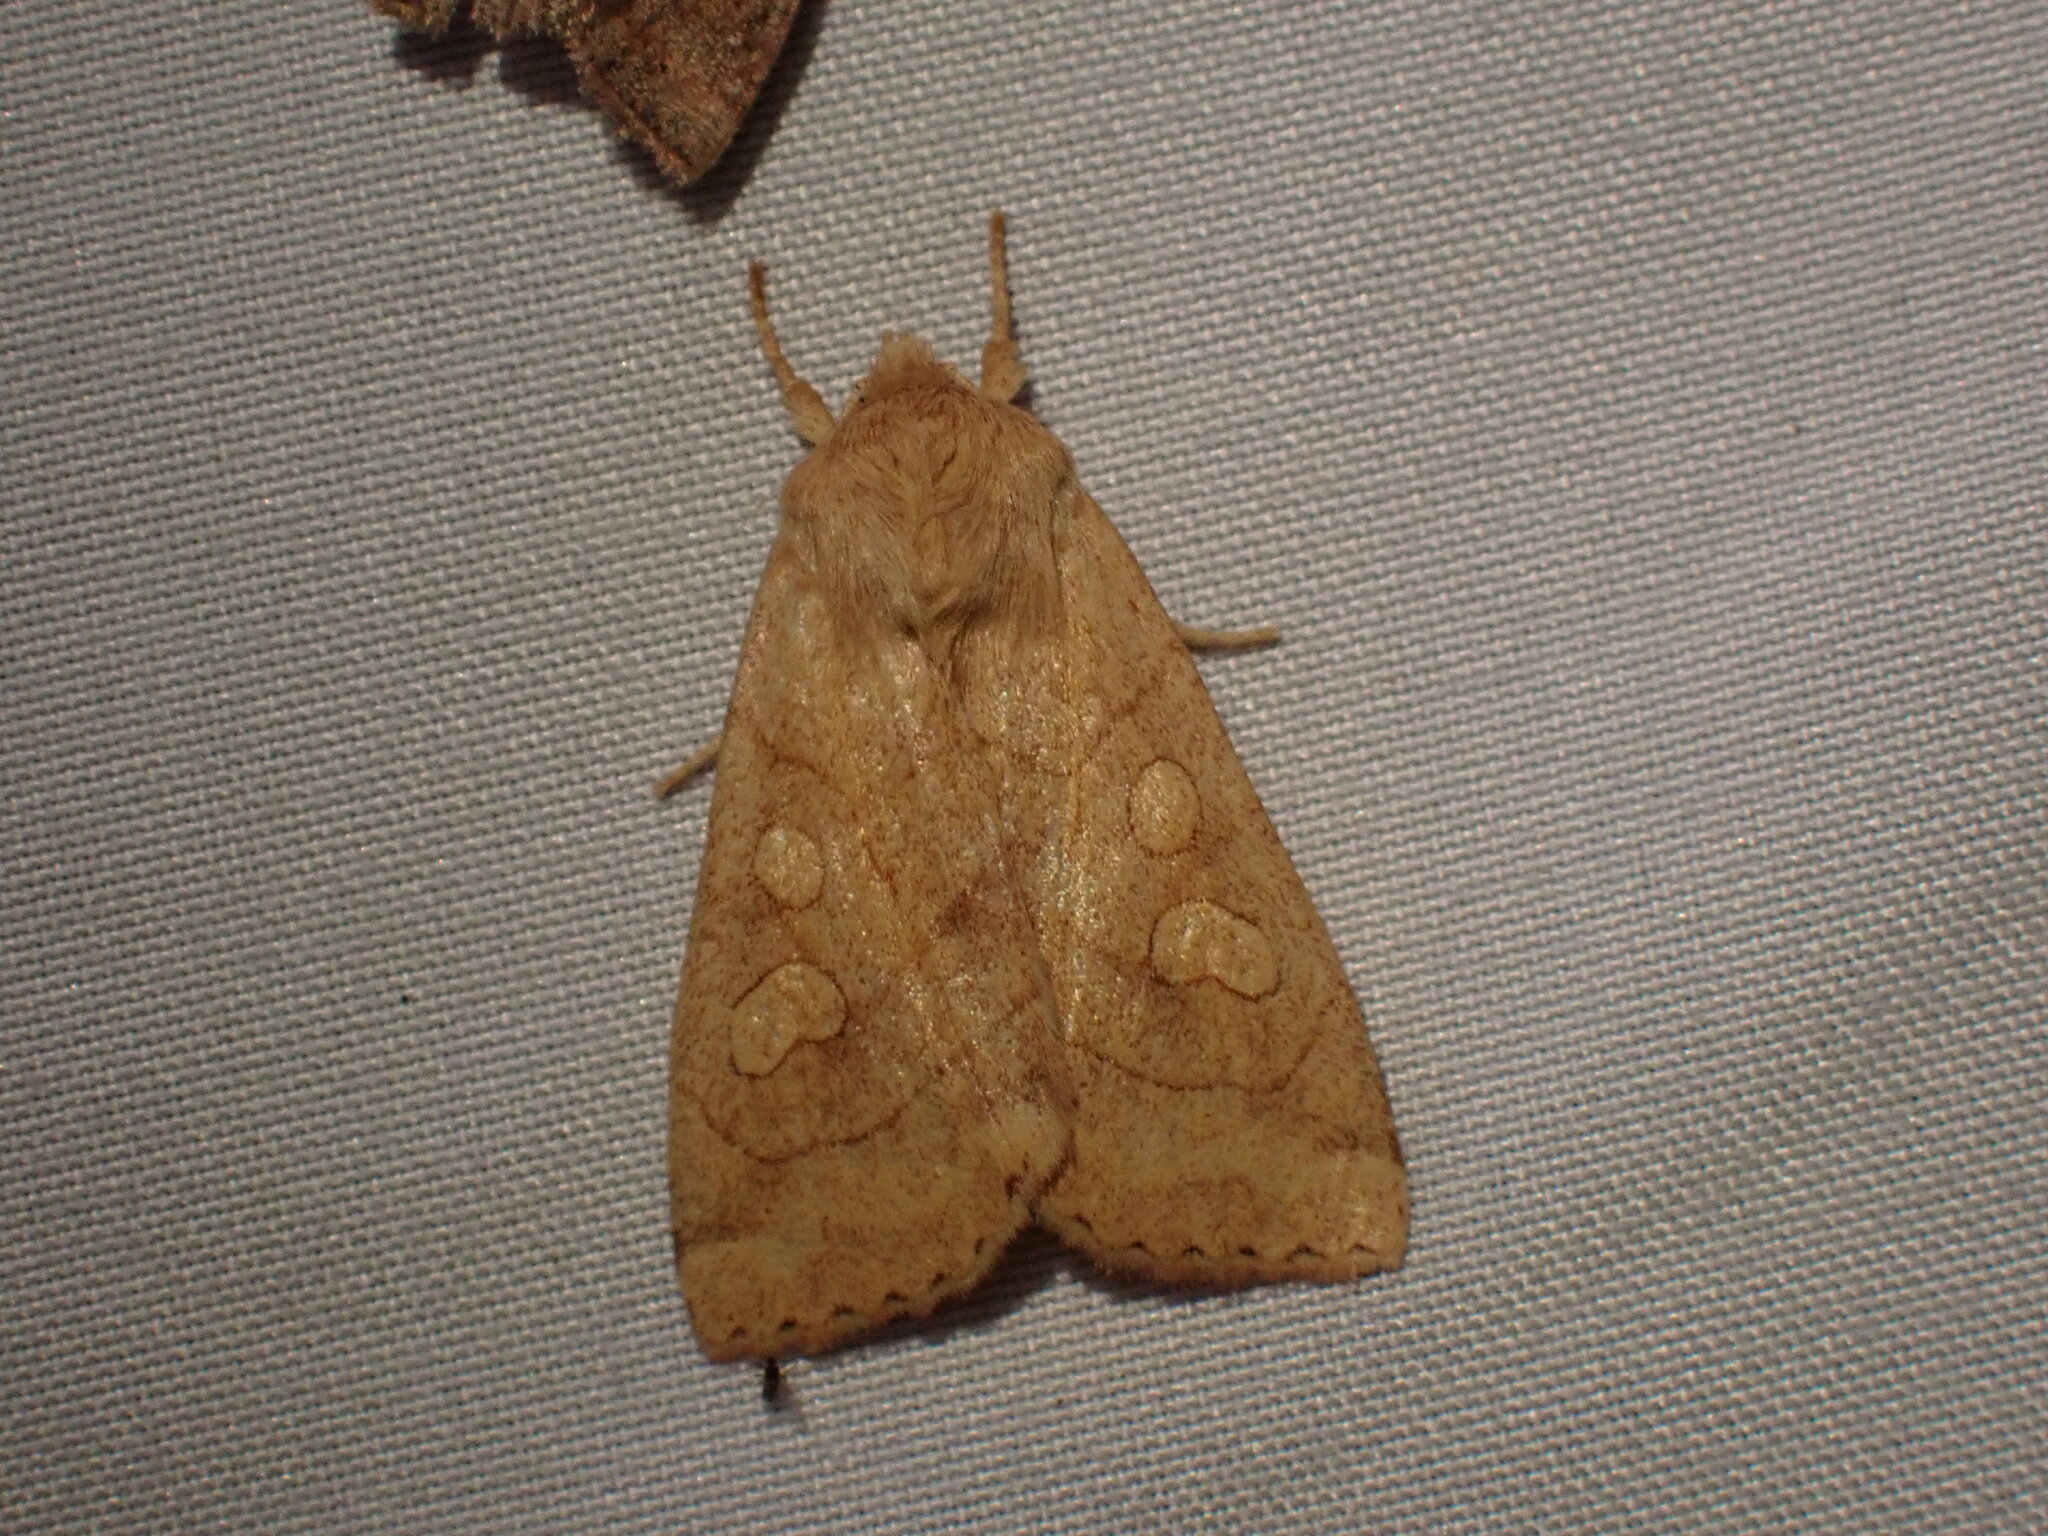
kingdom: Animalia
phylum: Arthropoda
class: Insecta
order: Lepidoptera
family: Noctuidae
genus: Enargia
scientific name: Enargia decolor
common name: Aspen twoleaf tier moth
